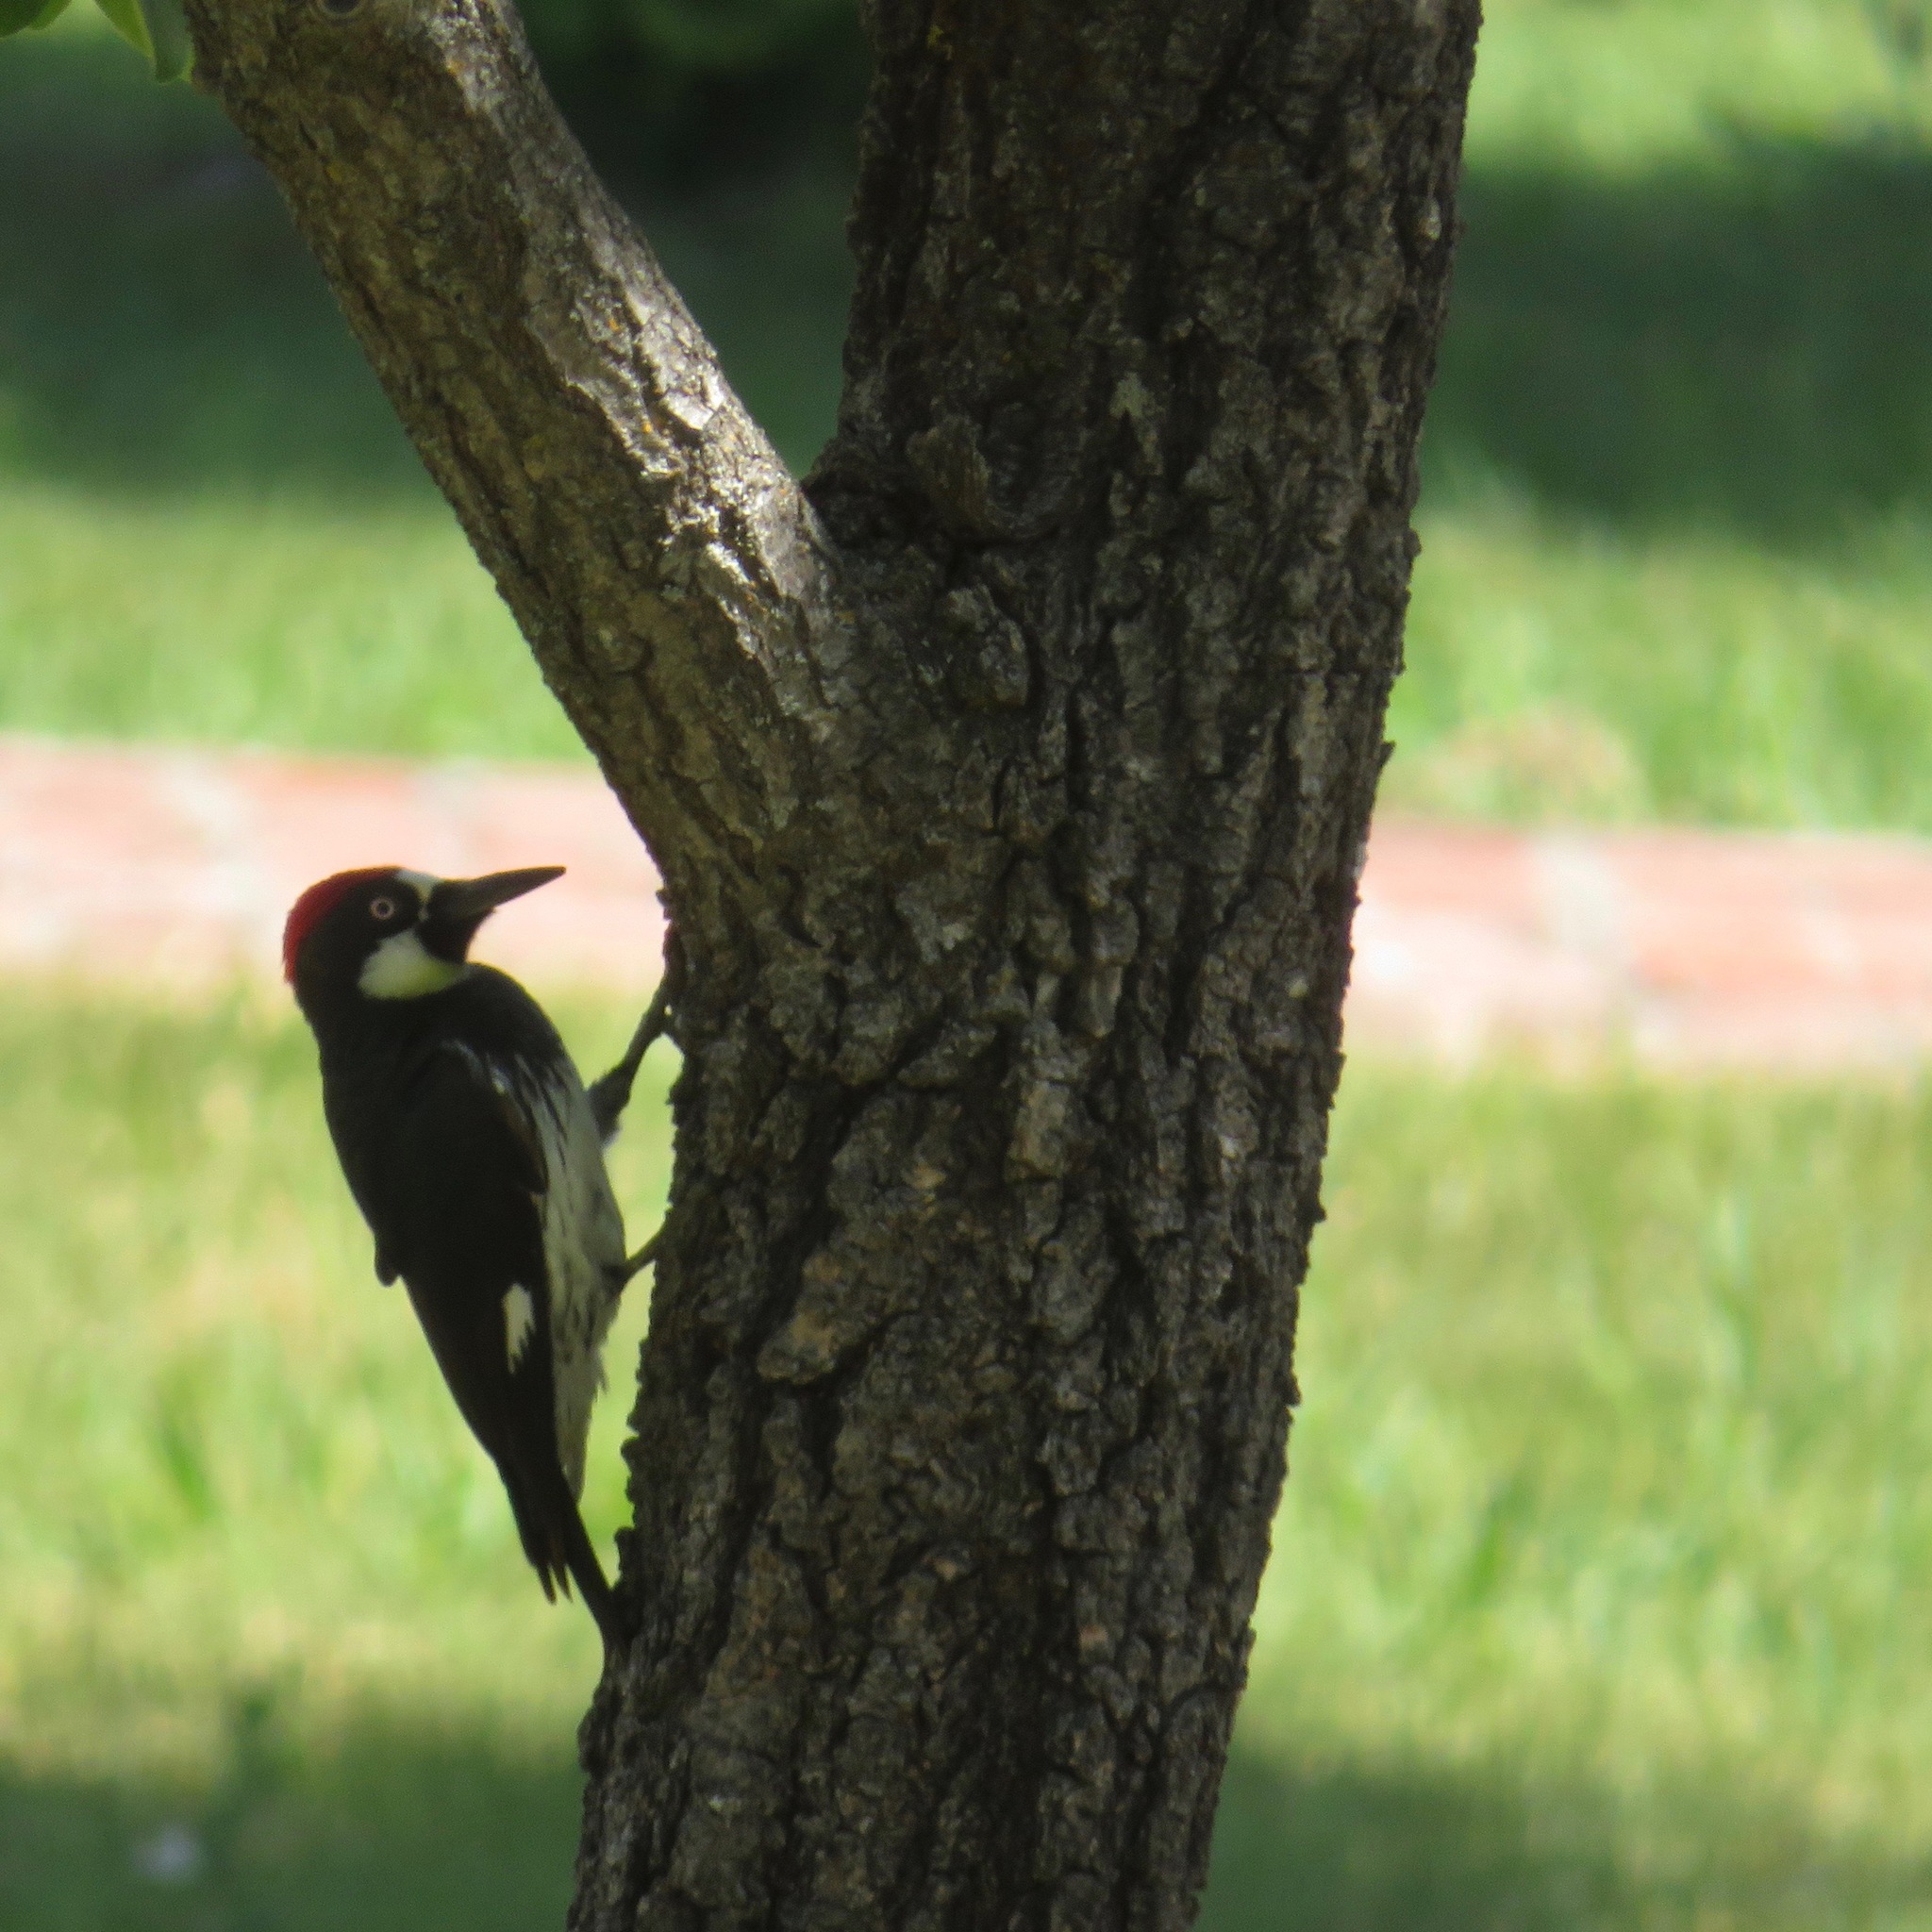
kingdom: Animalia
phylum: Chordata
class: Aves
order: Piciformes
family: Picidae
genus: Melanerpes
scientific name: Melanerpes formicivorus
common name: Acorn woodpecker
